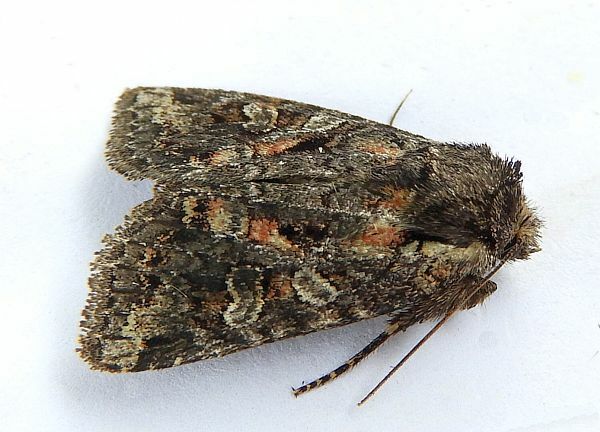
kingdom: Animalia
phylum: Arthropoda
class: Insecta
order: Lepidoptera
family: Noctuidae
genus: Orthodes
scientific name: Orthodes detracta
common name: Disparaged arches moth
